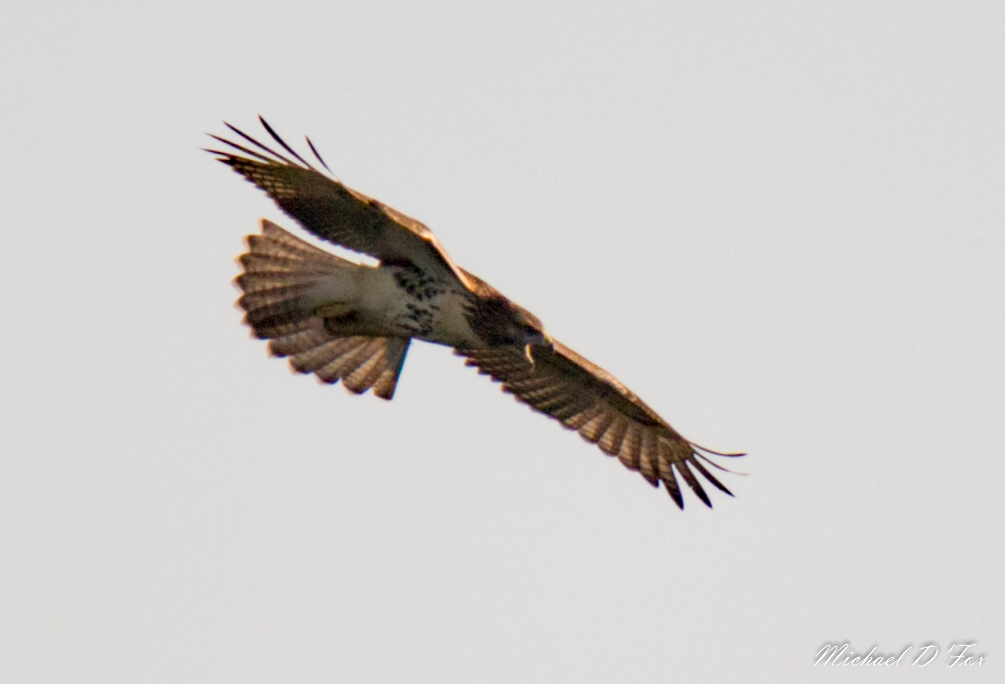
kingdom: Animalia
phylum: Chordata
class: Aves
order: Accipitriformes
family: Accipitridae
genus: Buteo
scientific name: Buteo jamaicensis
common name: Red-tailed hawk
